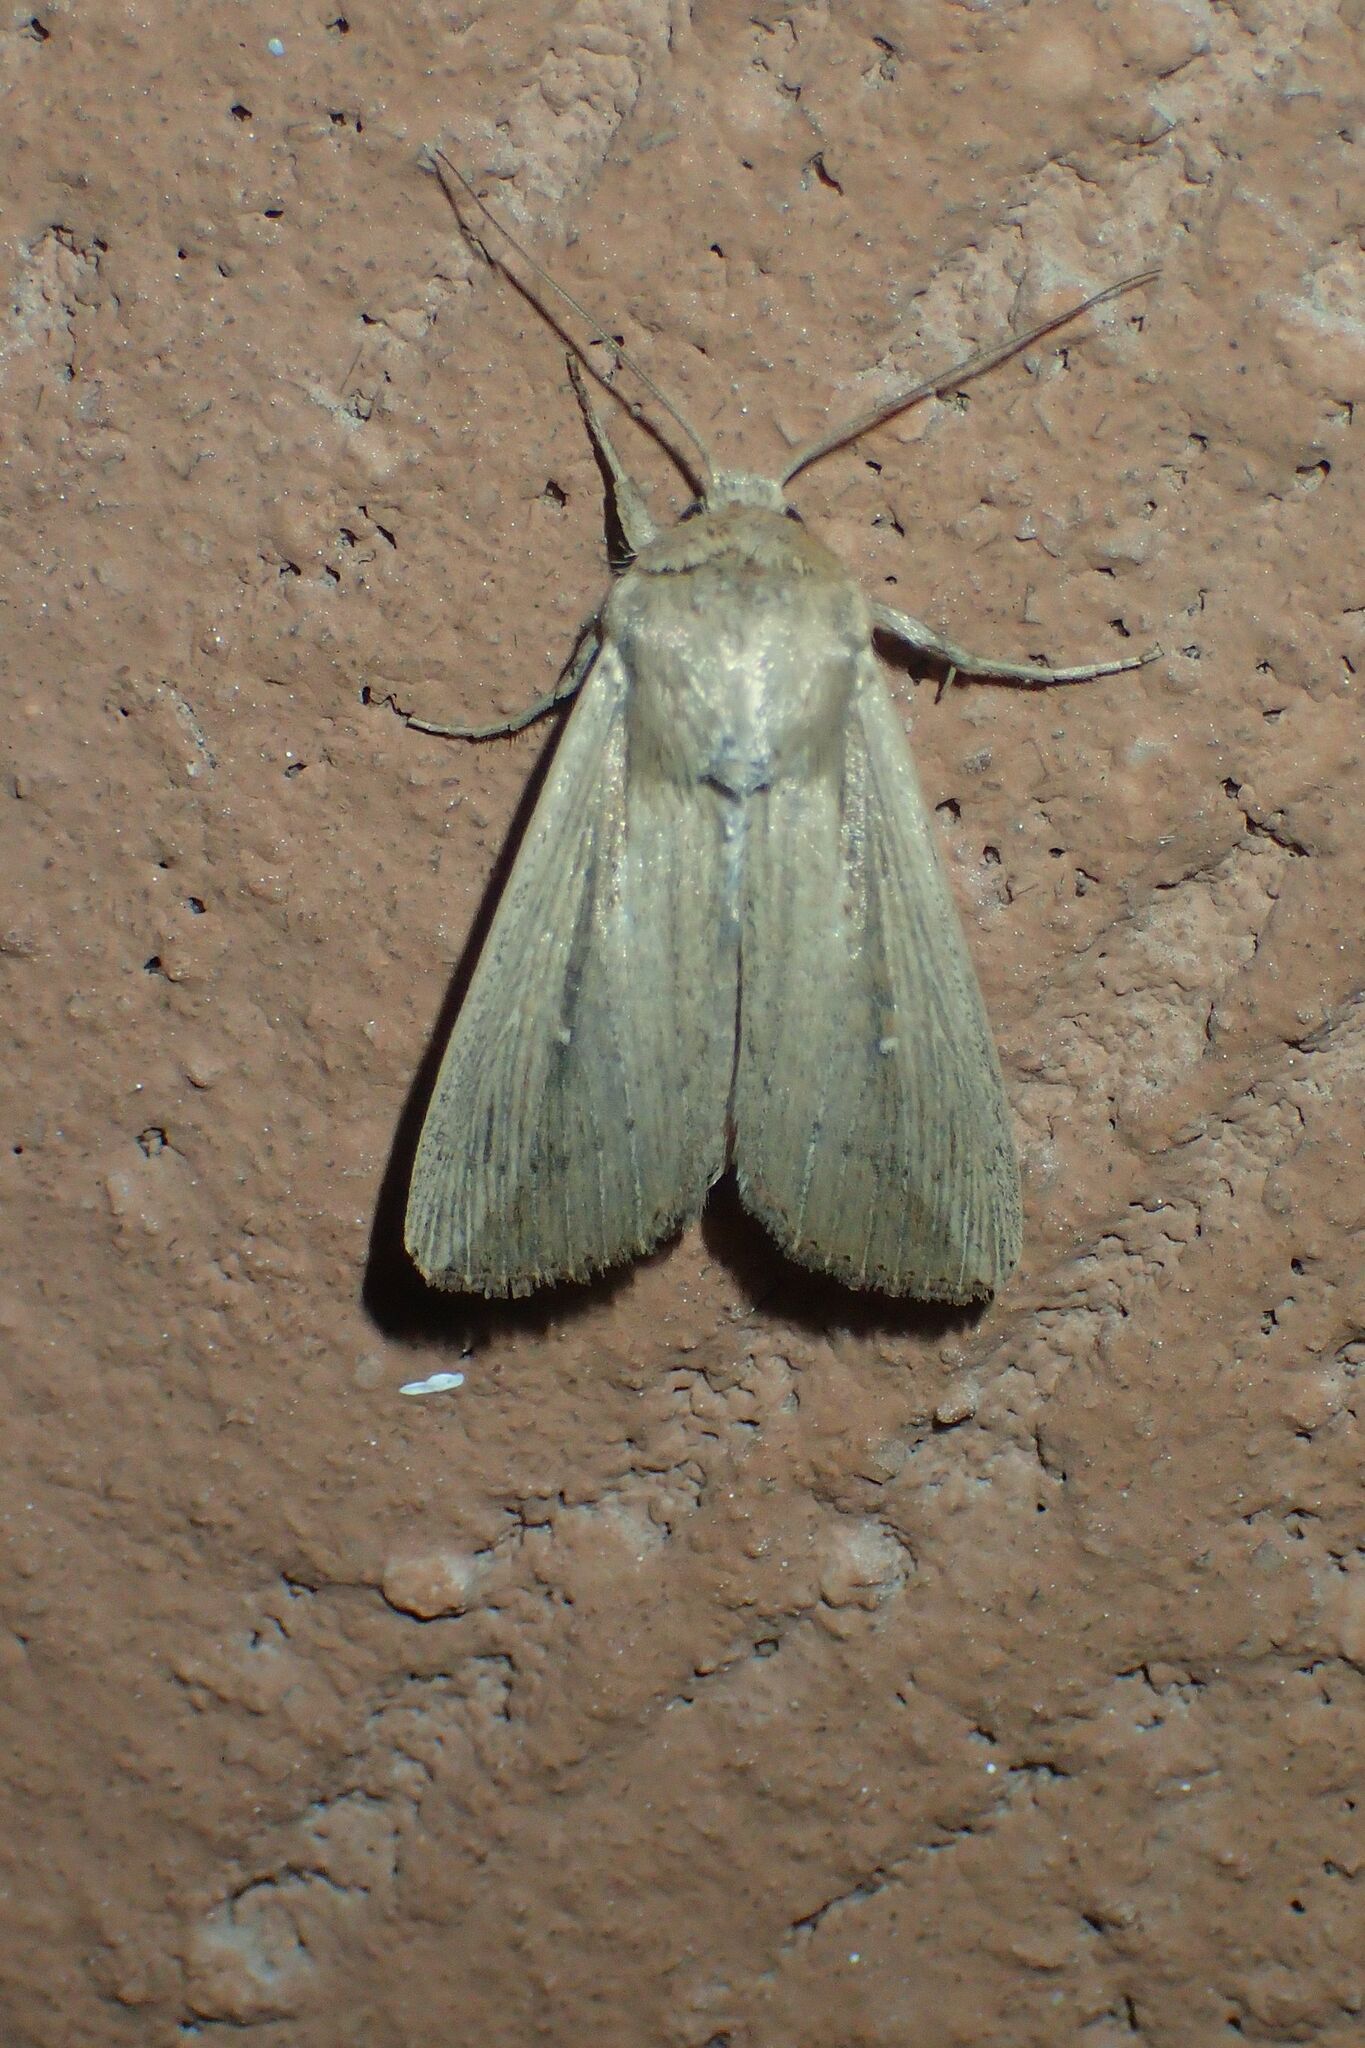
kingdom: Animalia
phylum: Arthropoda
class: Insecta
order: Lepidoptera
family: Noctuidae
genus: Leucania
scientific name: Leucania loreyi
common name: The cosmopolitan
